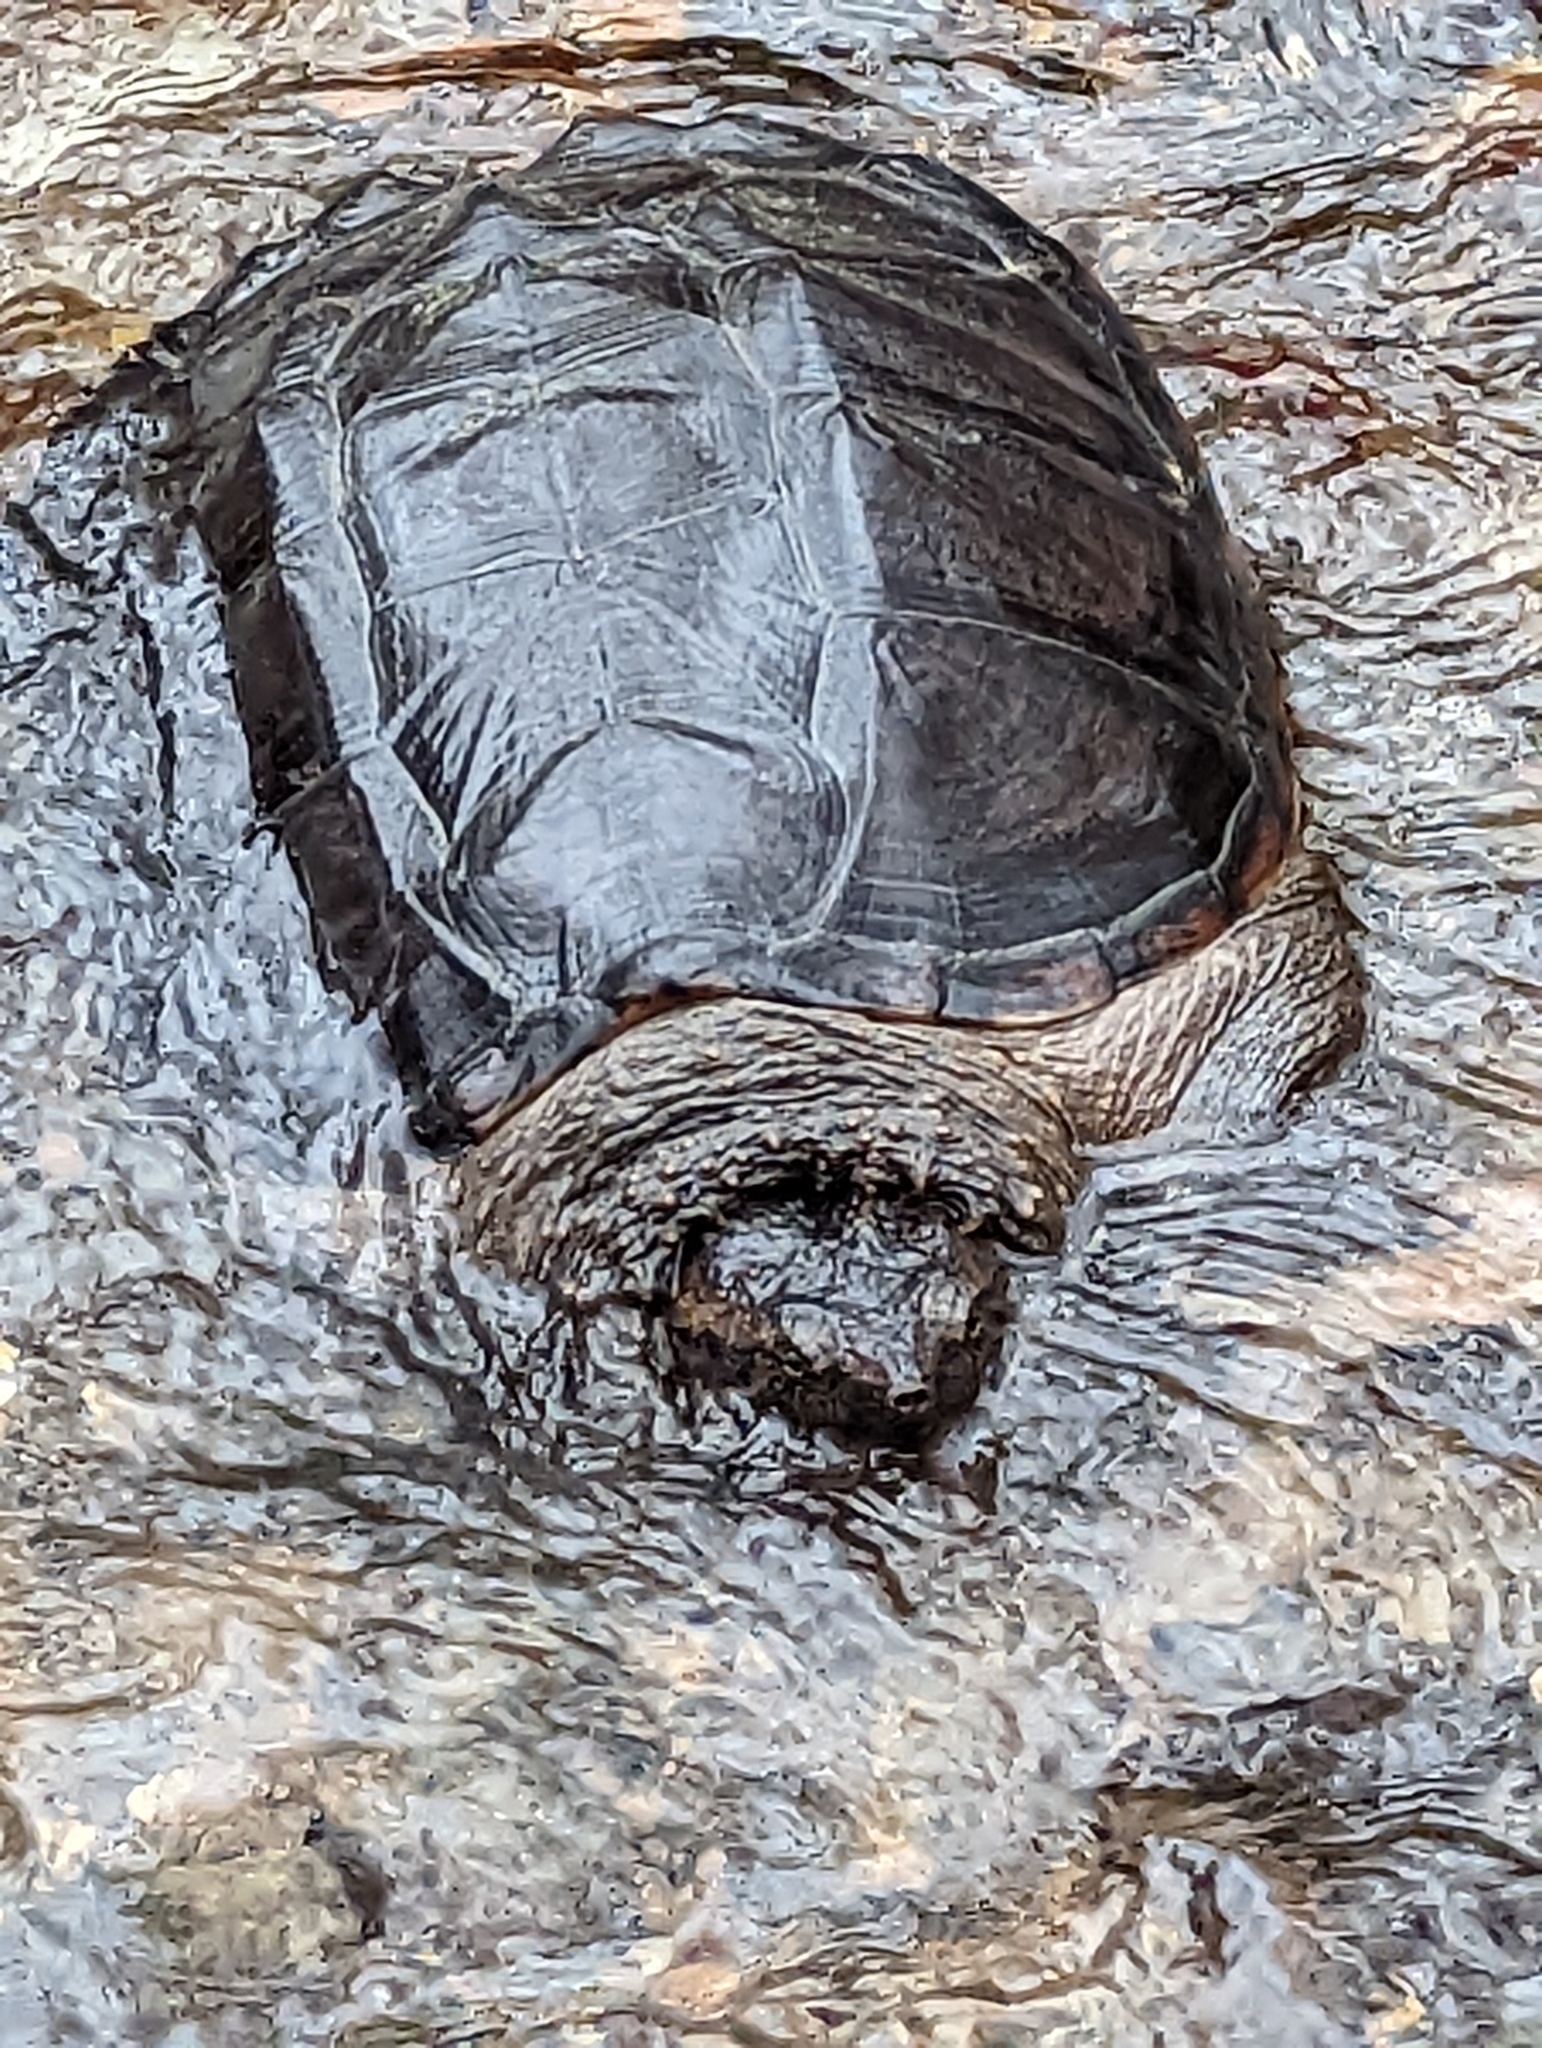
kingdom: Animalia
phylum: Chordata
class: Testudines
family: Chelydridae
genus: Chelydra
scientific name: Chelydra serpentina
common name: Common snapping turtle
